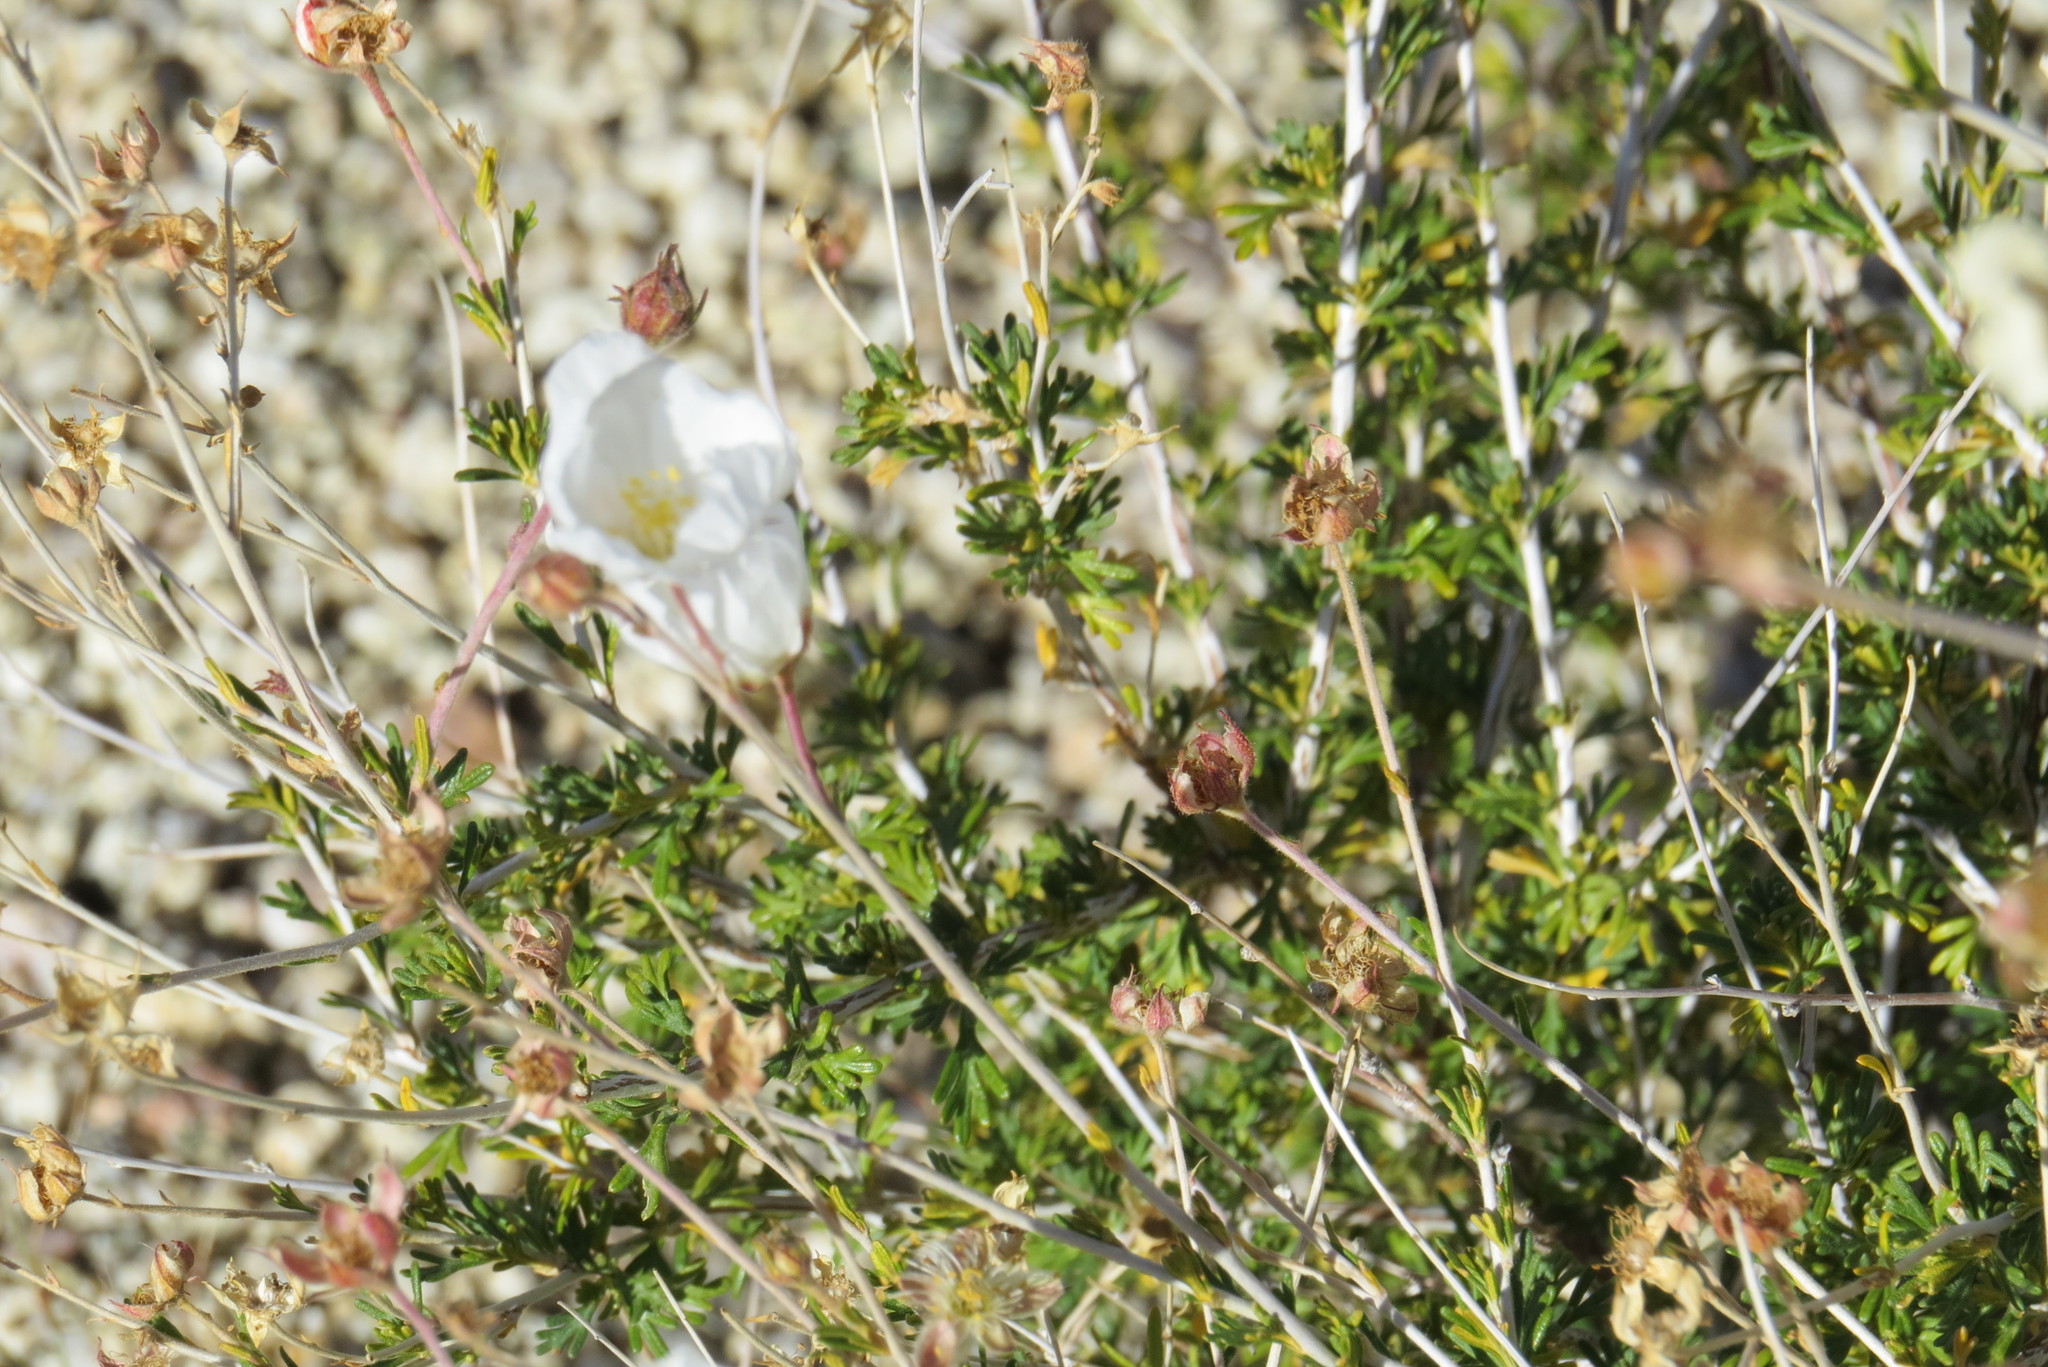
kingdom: Plantae
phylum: Tracheophyta
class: Magnoliopsida
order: Rosales
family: Rosaceae
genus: Fallugia
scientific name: Fallugia paradoxa
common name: Apache-plume
